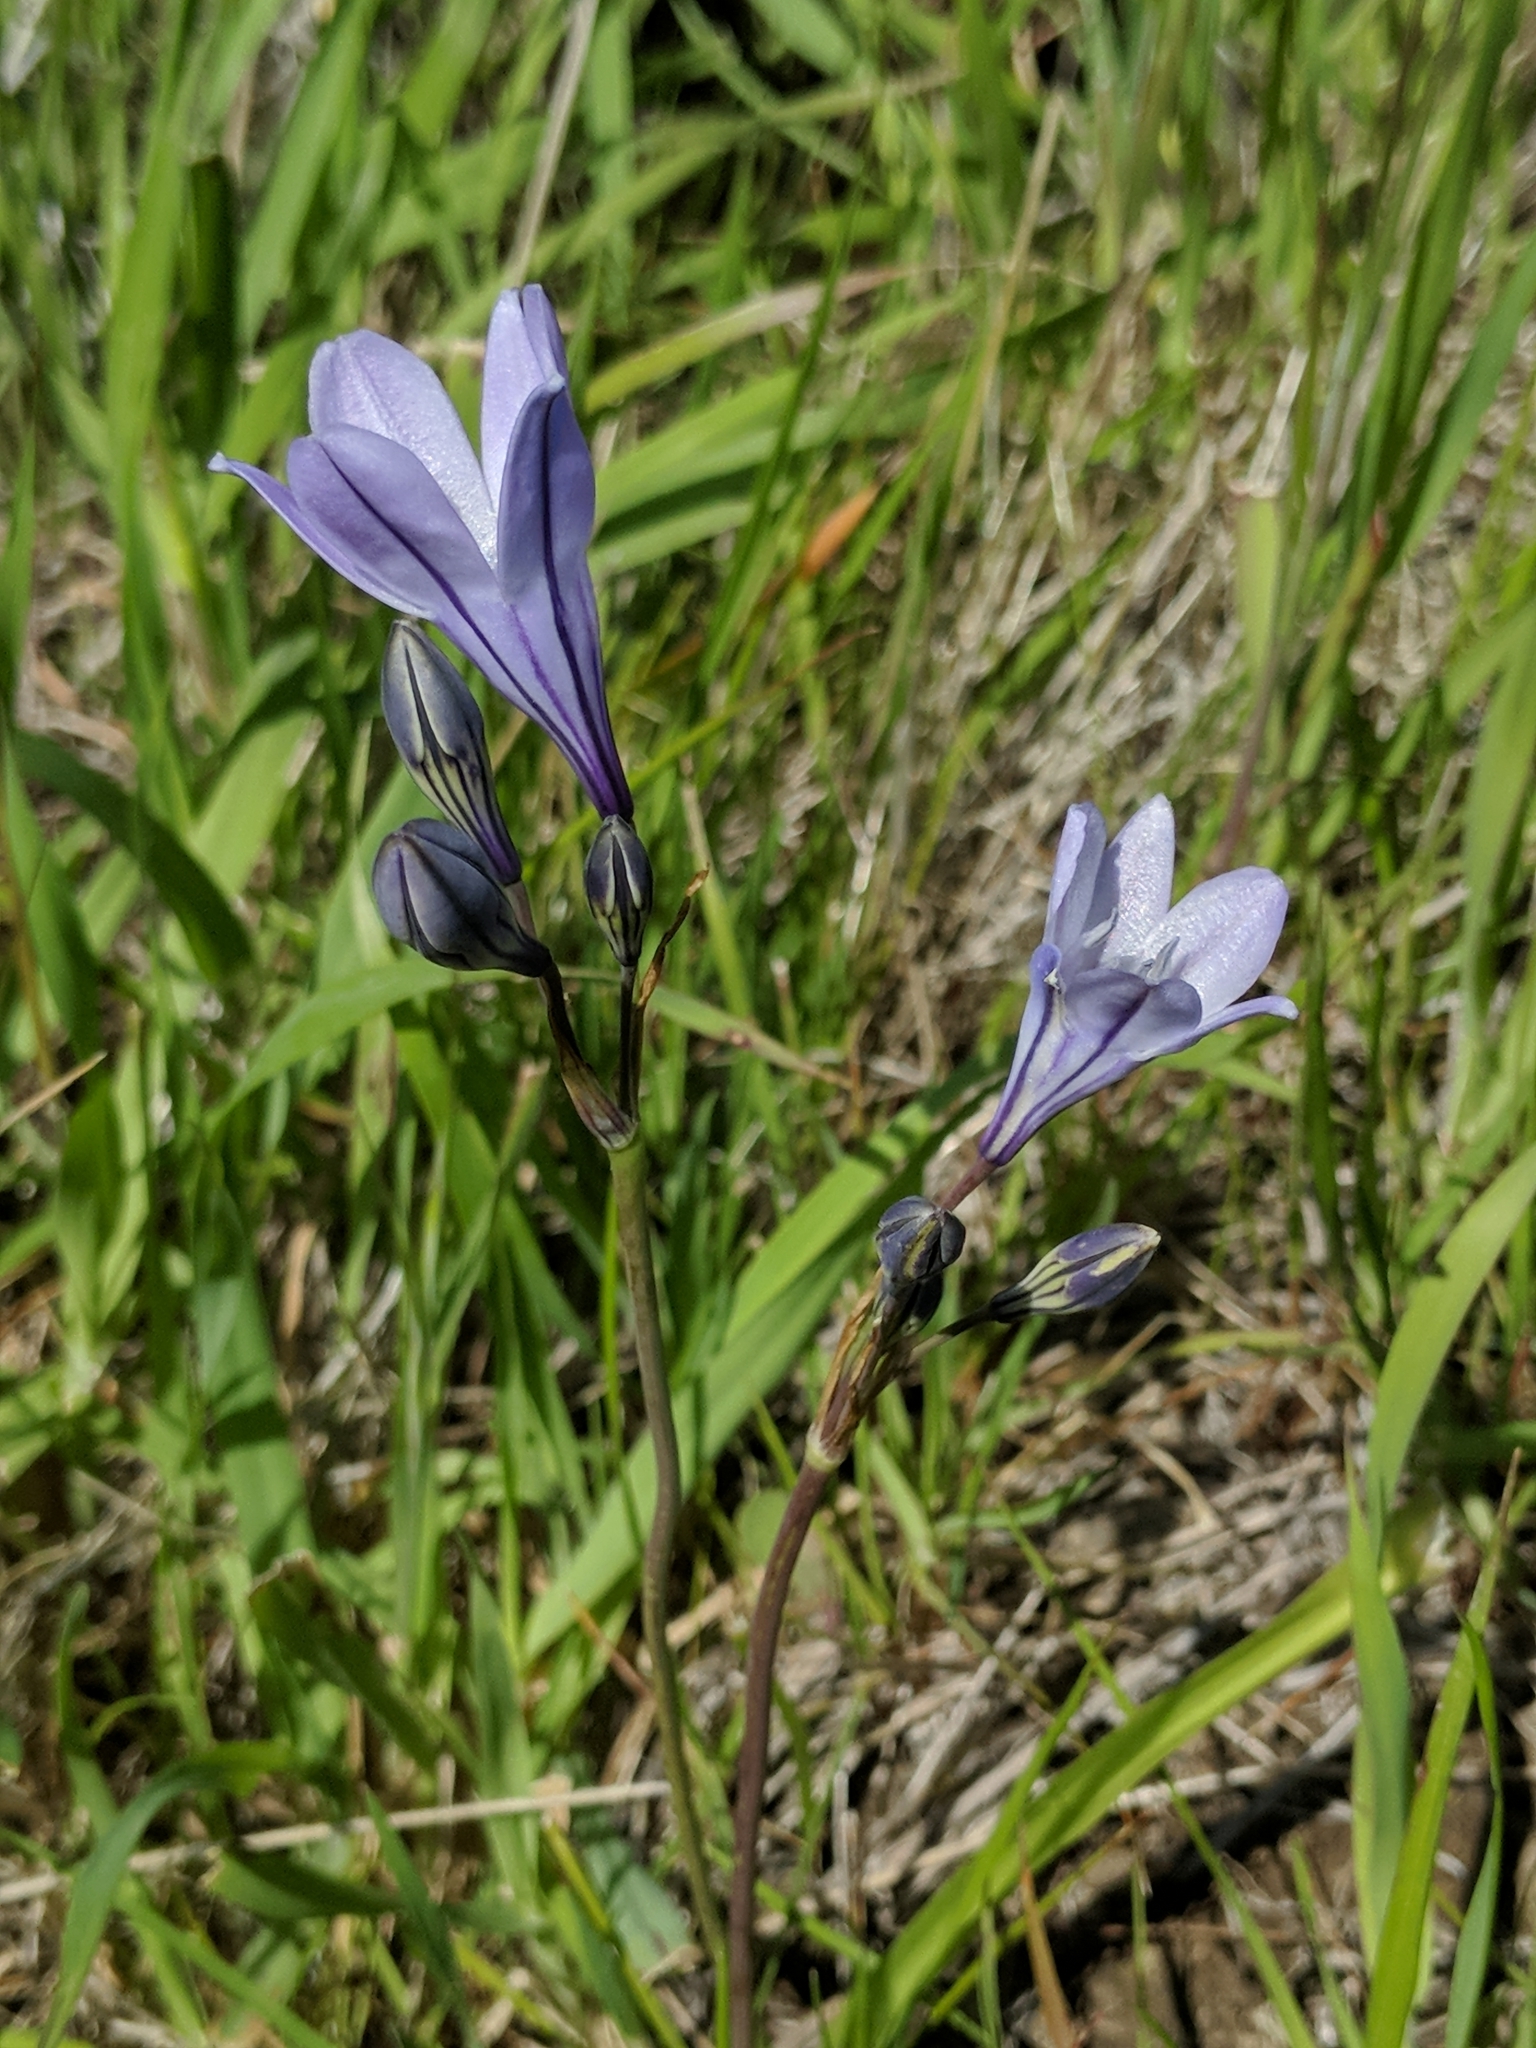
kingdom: Plantae
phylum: Tracheophyta
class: Liliopsida
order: Asparagales
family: Asparagaceae
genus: Triteleia
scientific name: Triteleia laxa
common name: Triplet-lily
